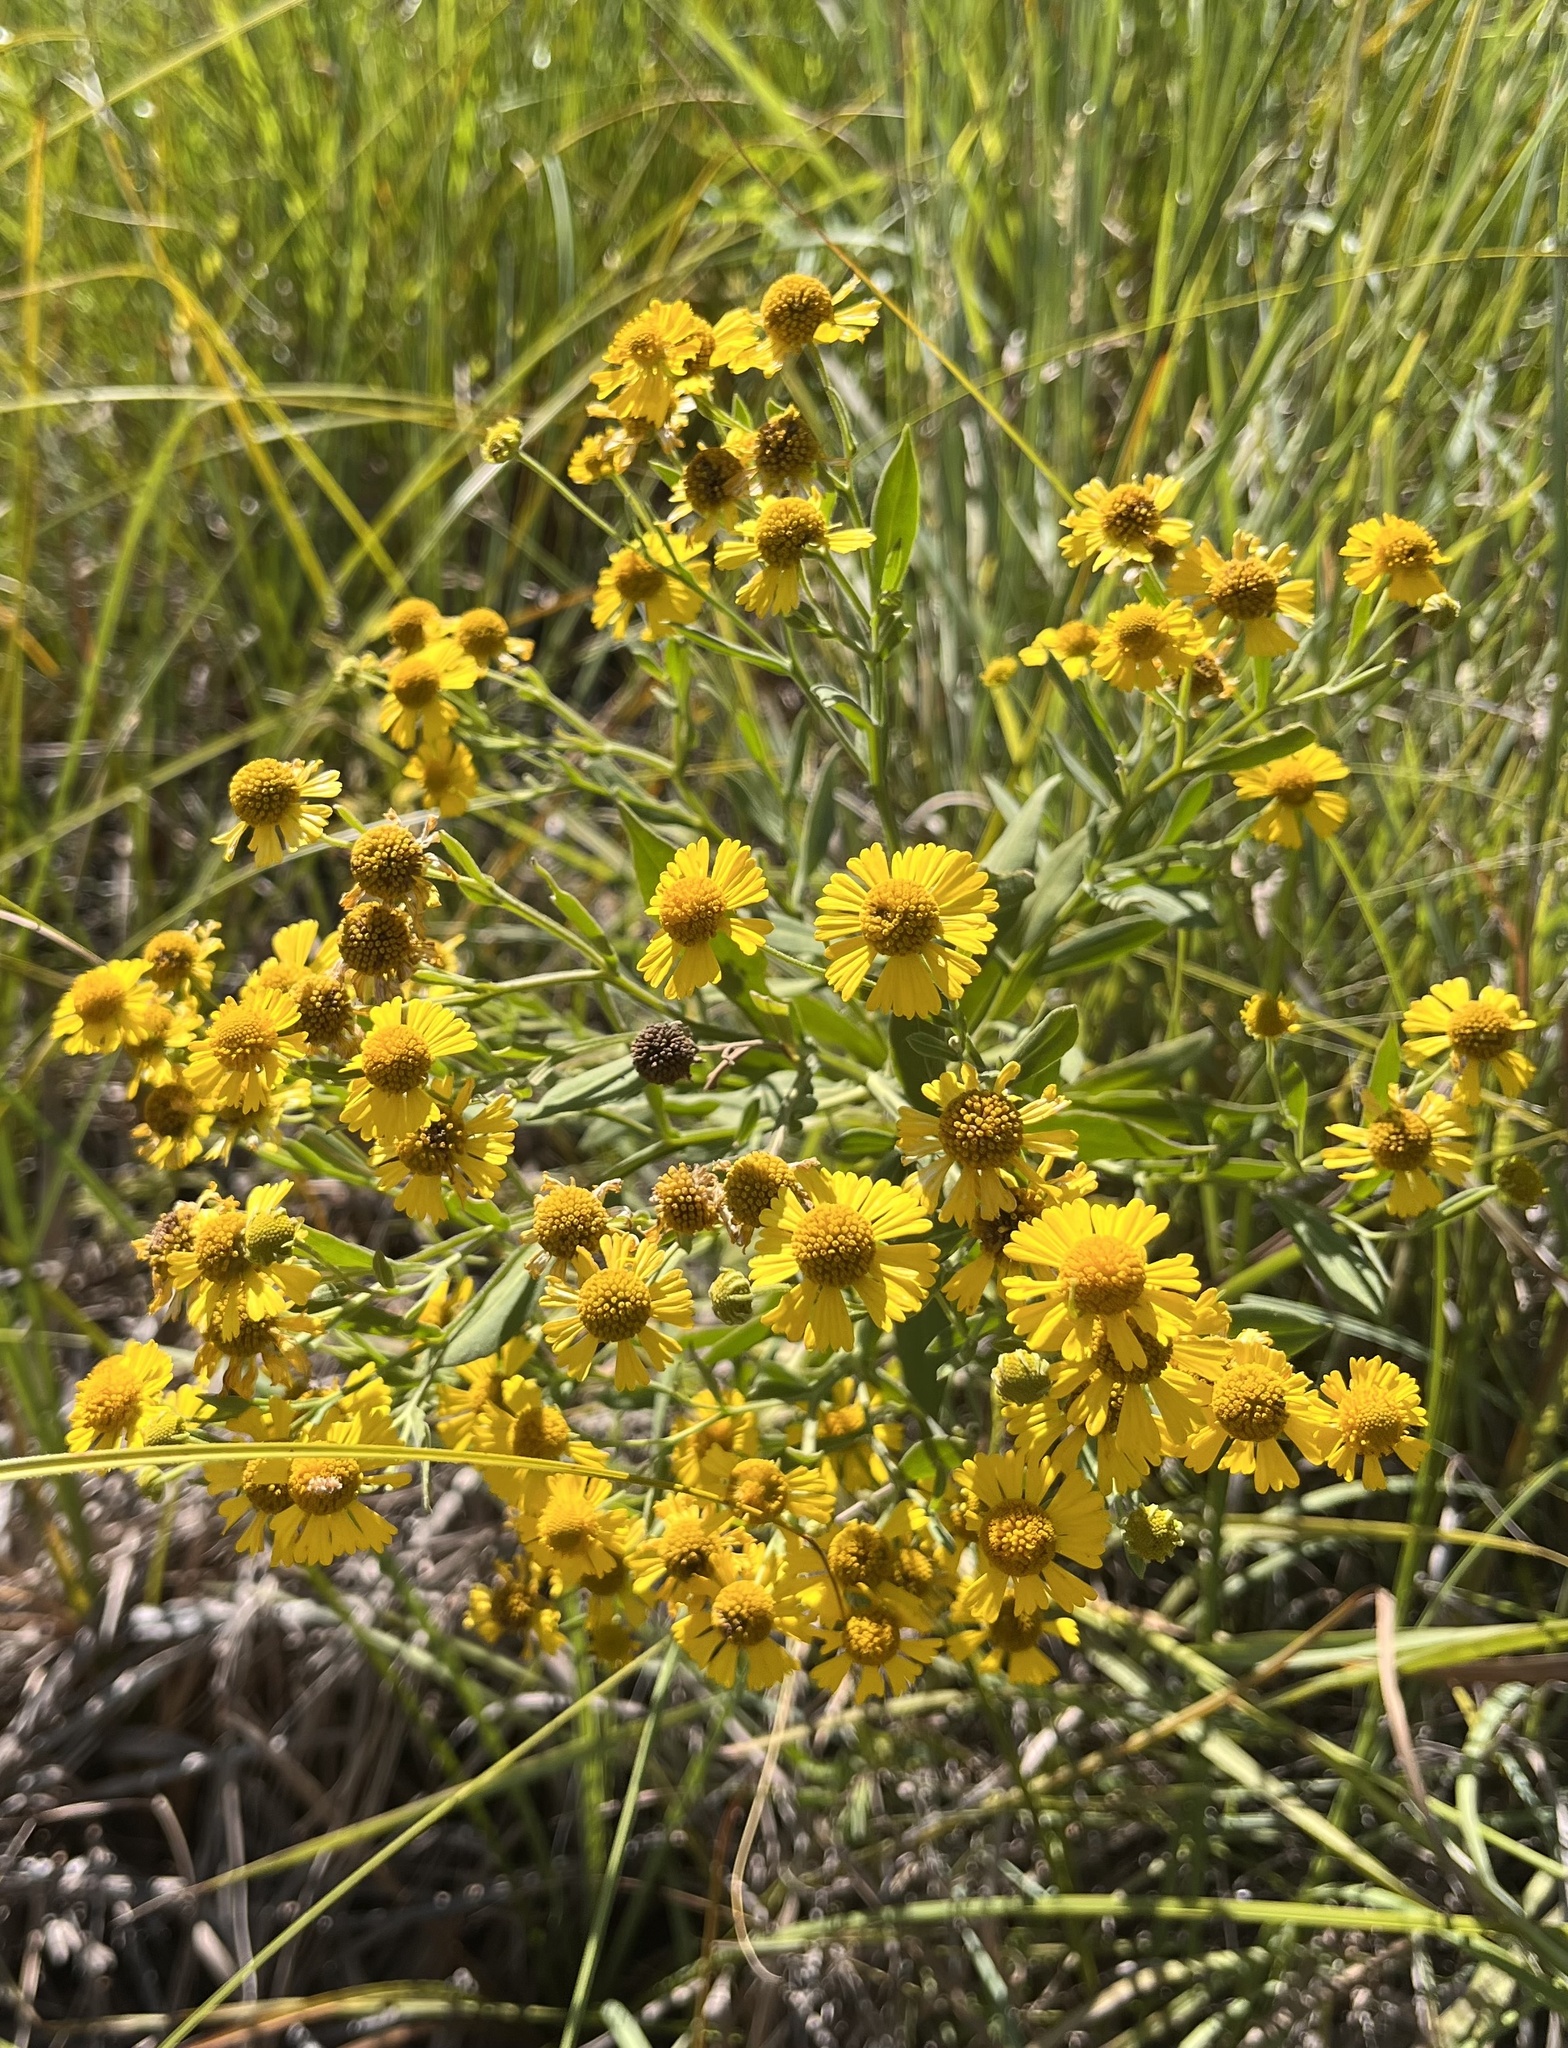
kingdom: Plantae
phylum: Tracheophyta
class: Magnoliopsida
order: Asterales
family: Asteraceae
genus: Helenium
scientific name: Helenium elegans
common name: Pretty sneezeweed
